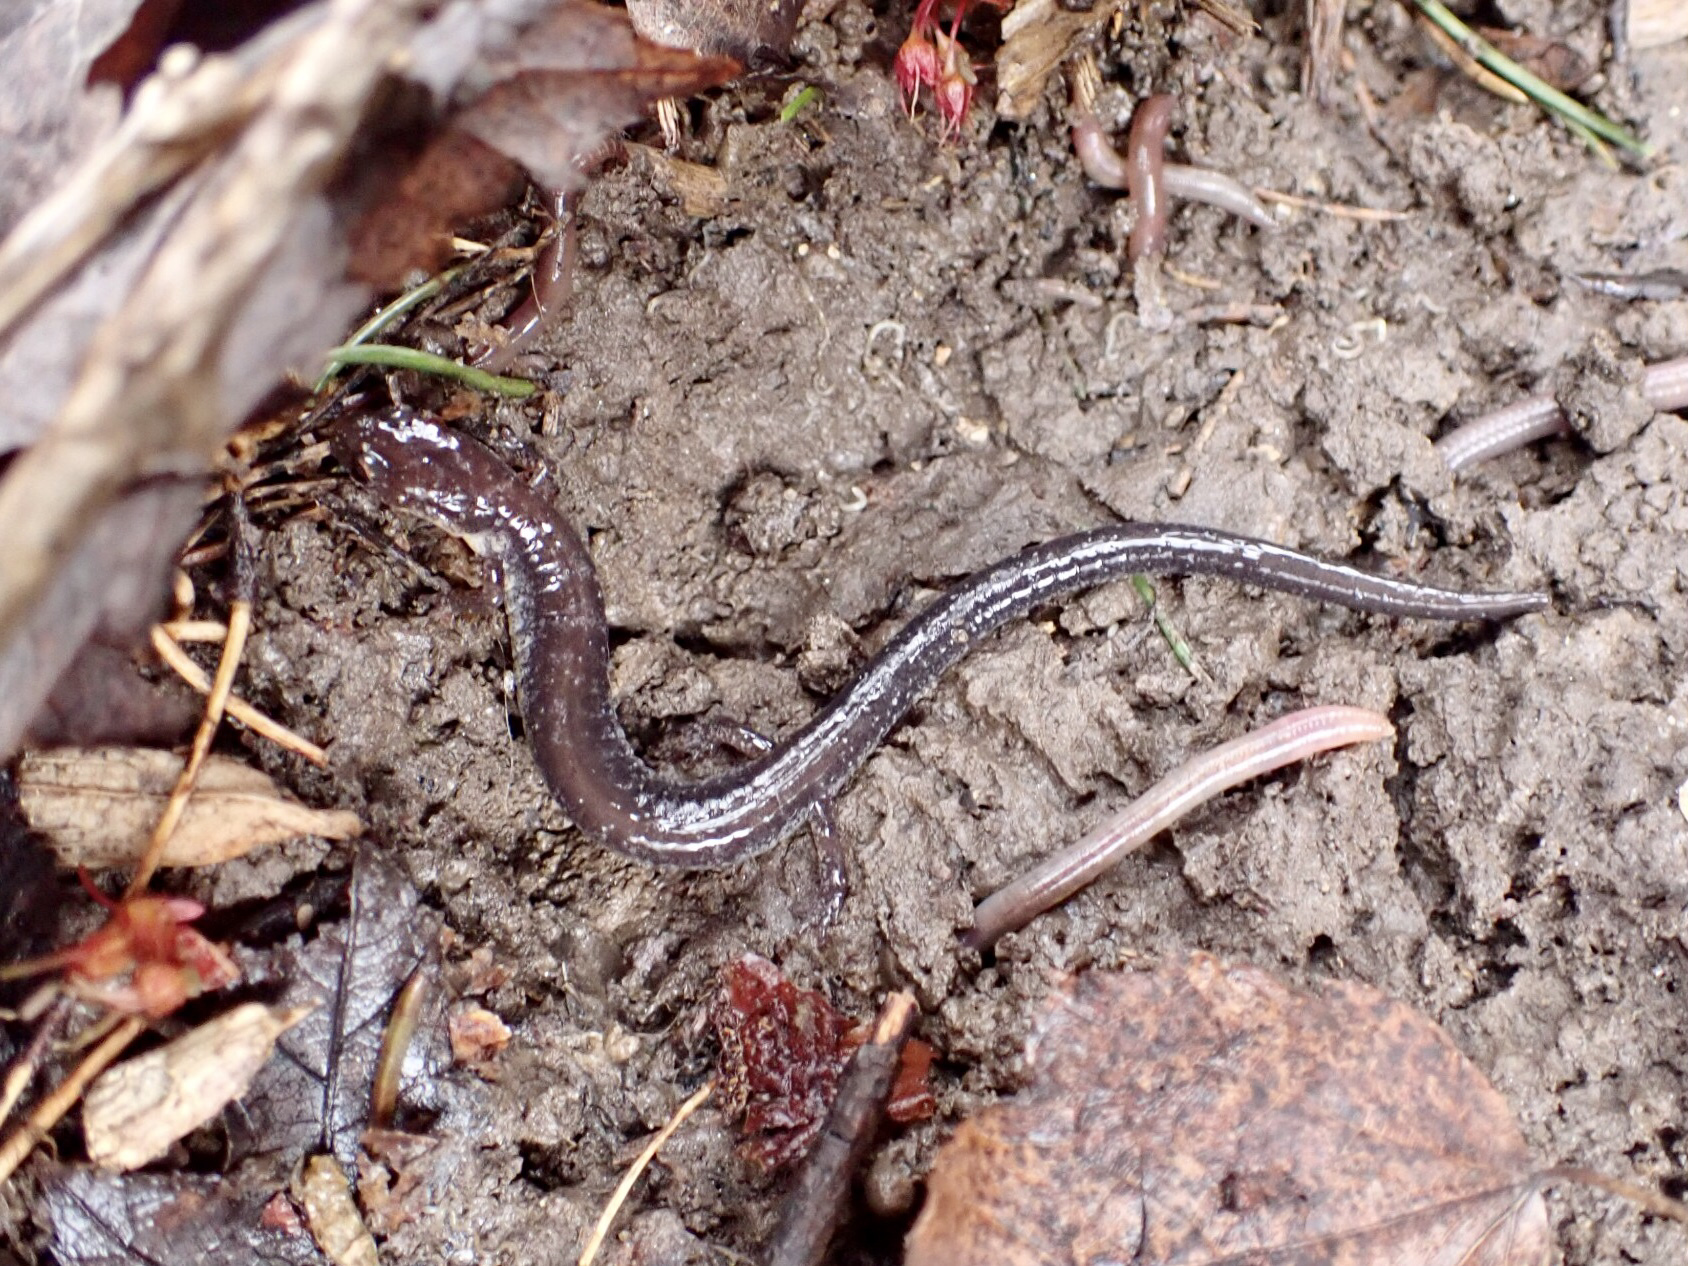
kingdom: Animalia
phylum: Chordata
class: Amphibia
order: Caudata
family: Plethodontidae
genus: Plethodon
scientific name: Plethodon cinereus
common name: Redback salamander
